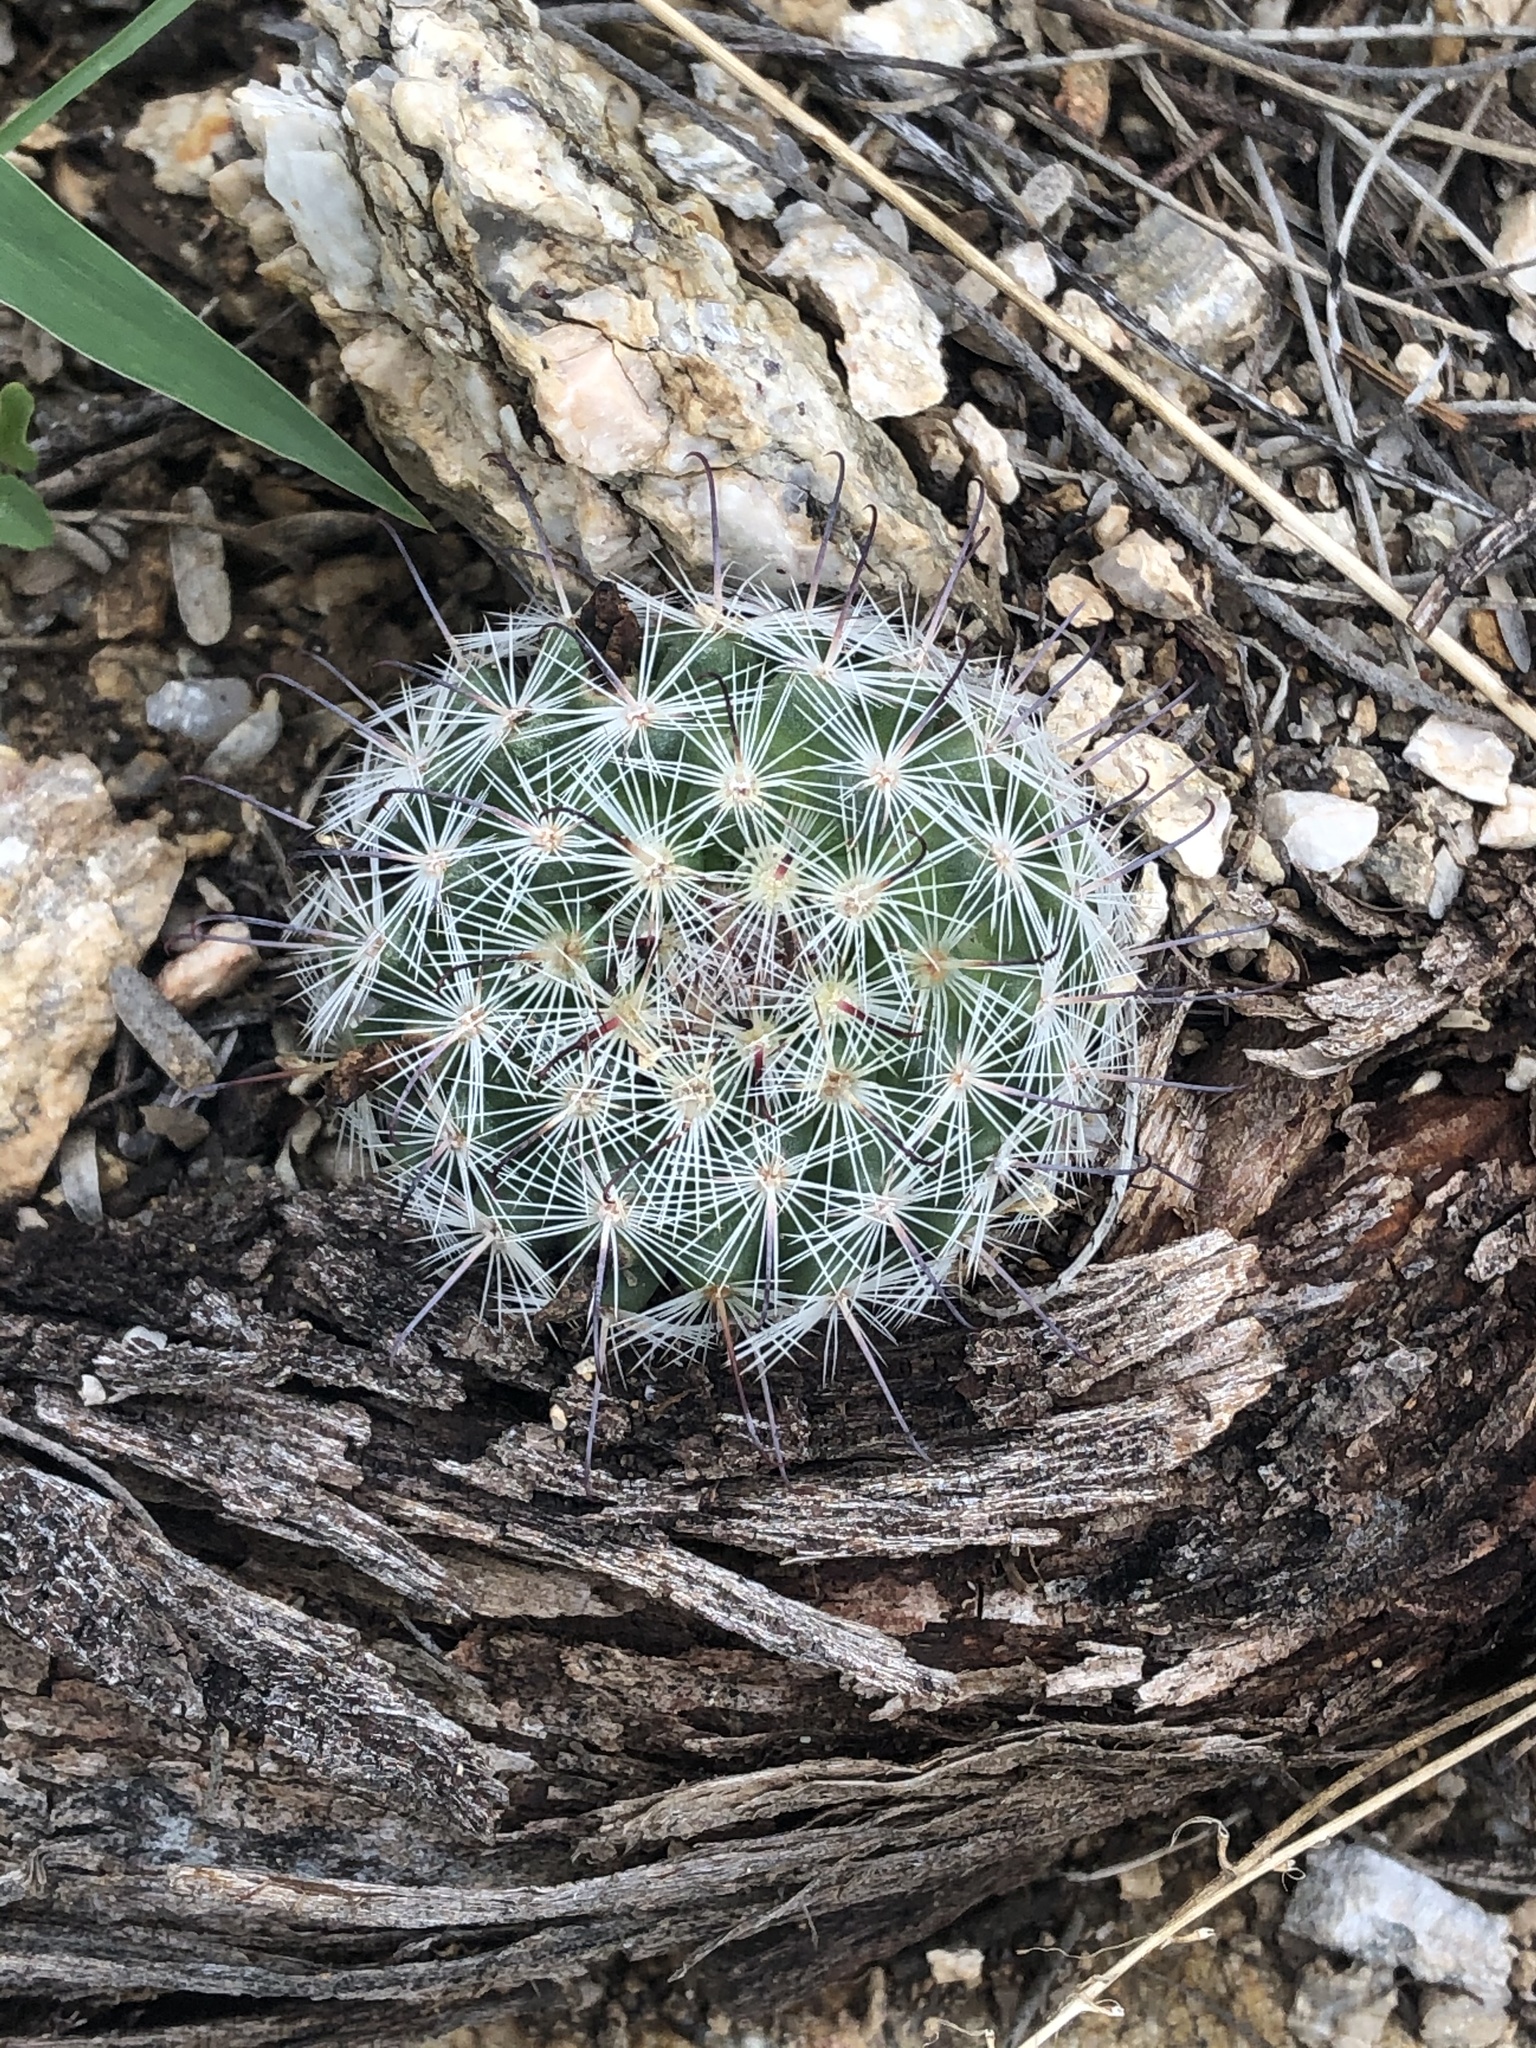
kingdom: Plantae
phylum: Tracheophyta
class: Magnoliopsida
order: Caryophyllales
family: Cactaceae
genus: Cochemiea
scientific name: Cochemiea grahamii
